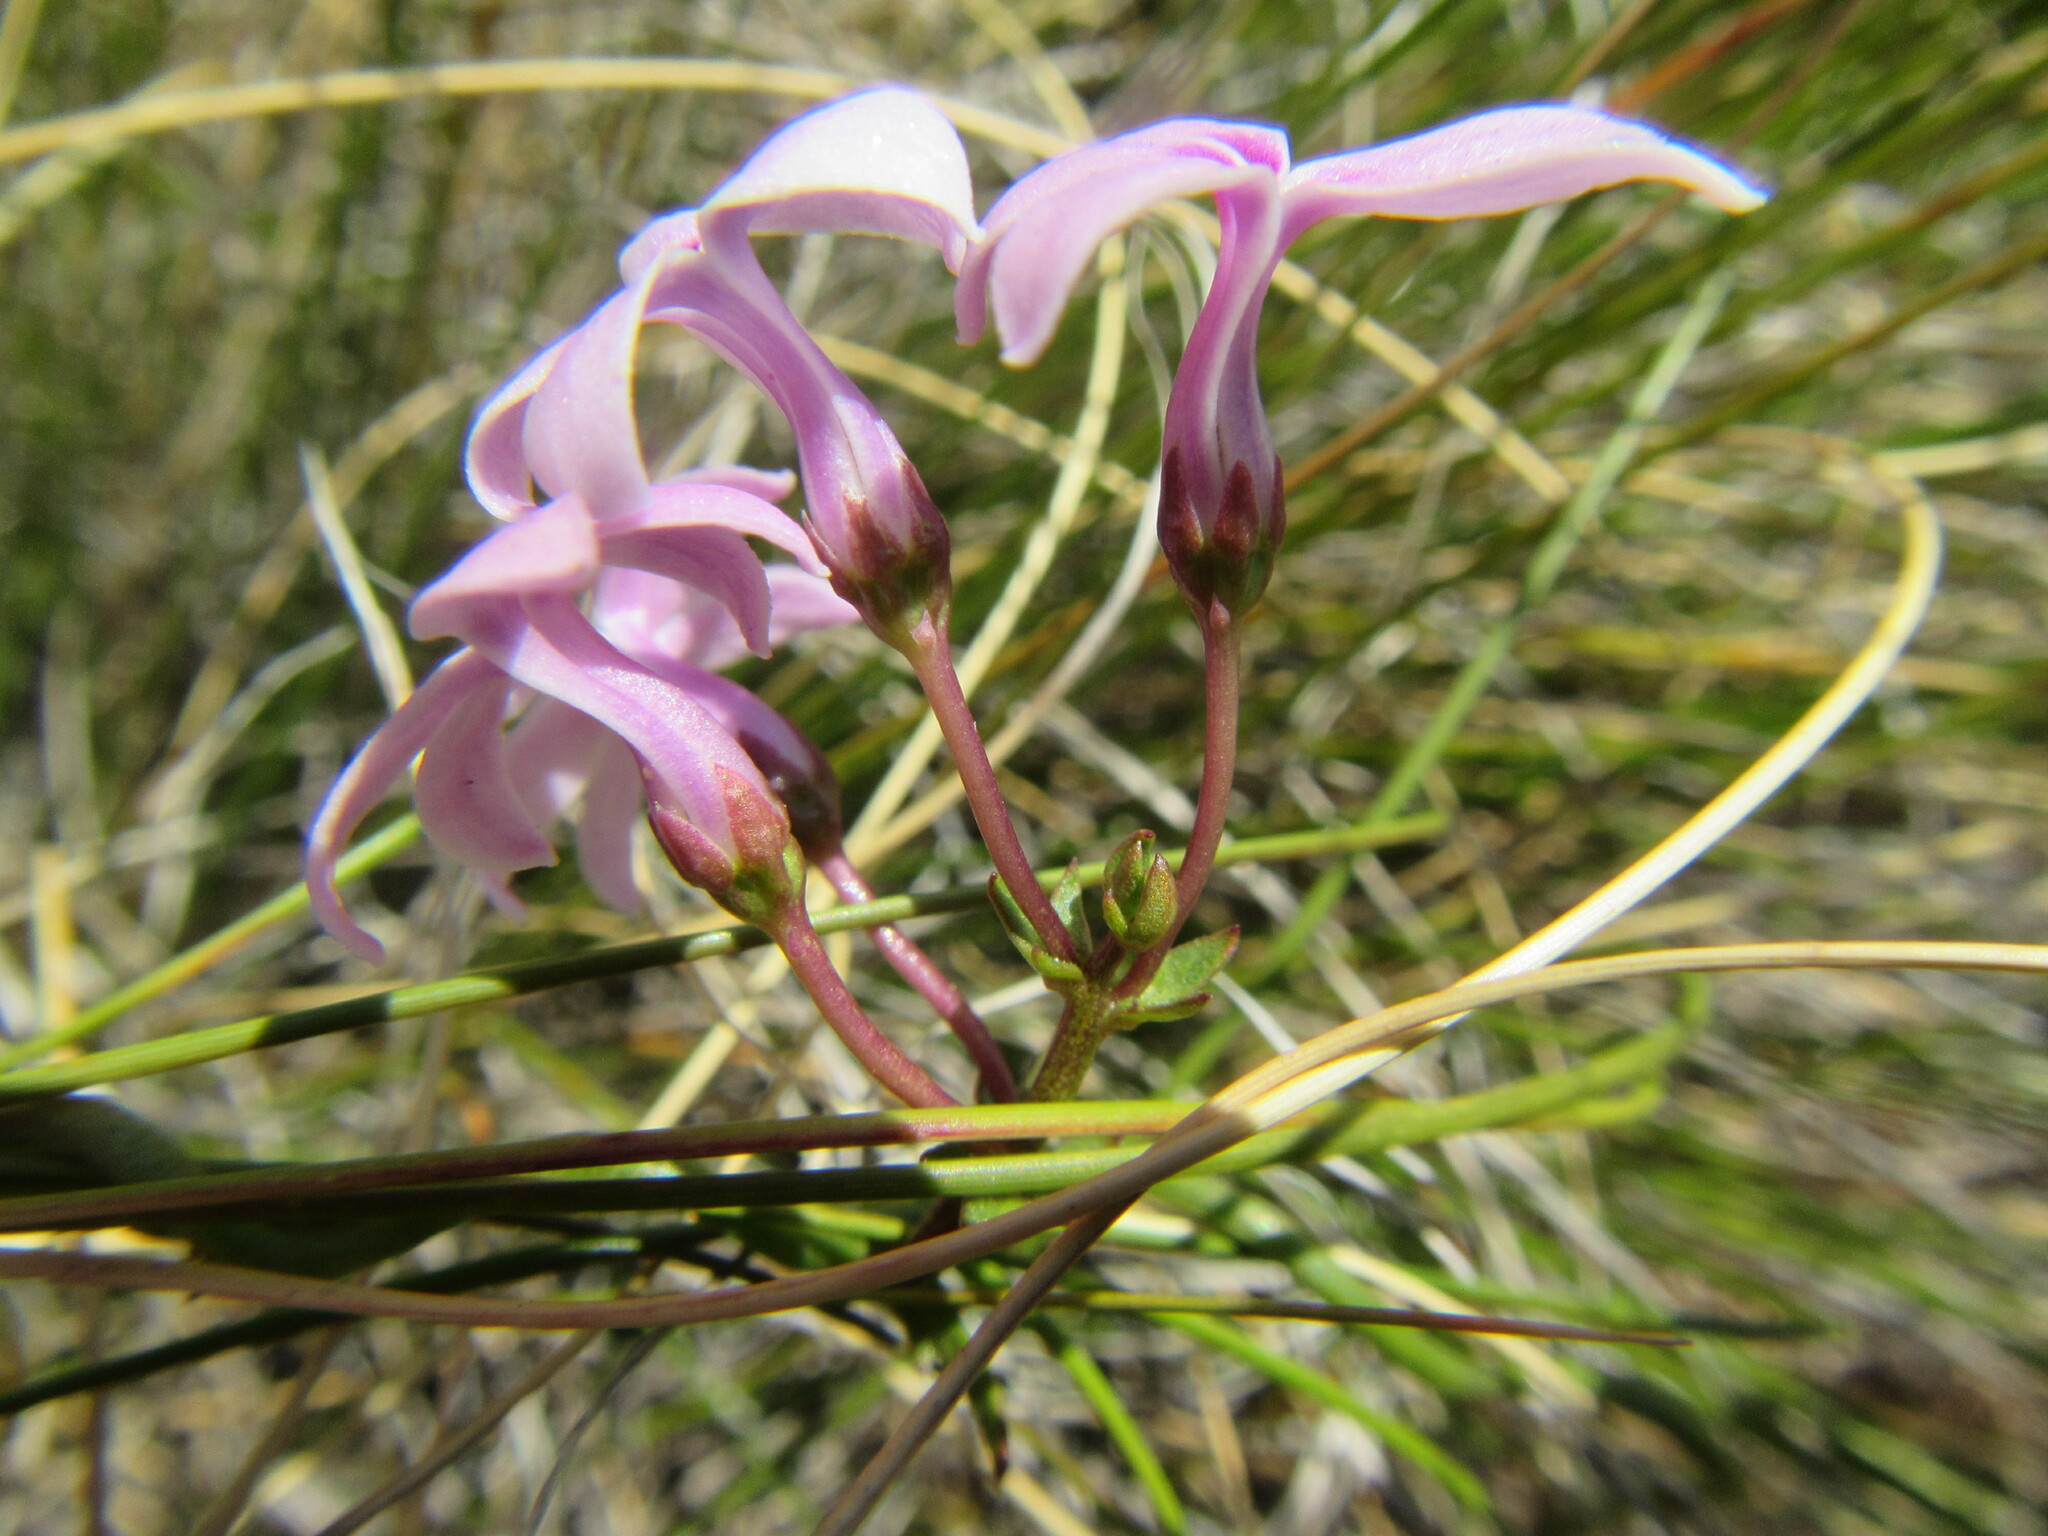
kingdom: Plantae
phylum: Tracheophyta
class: Magnoliopsida
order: Asterales
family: Campanulaceae
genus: Cyphia
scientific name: Cyphia digitata
